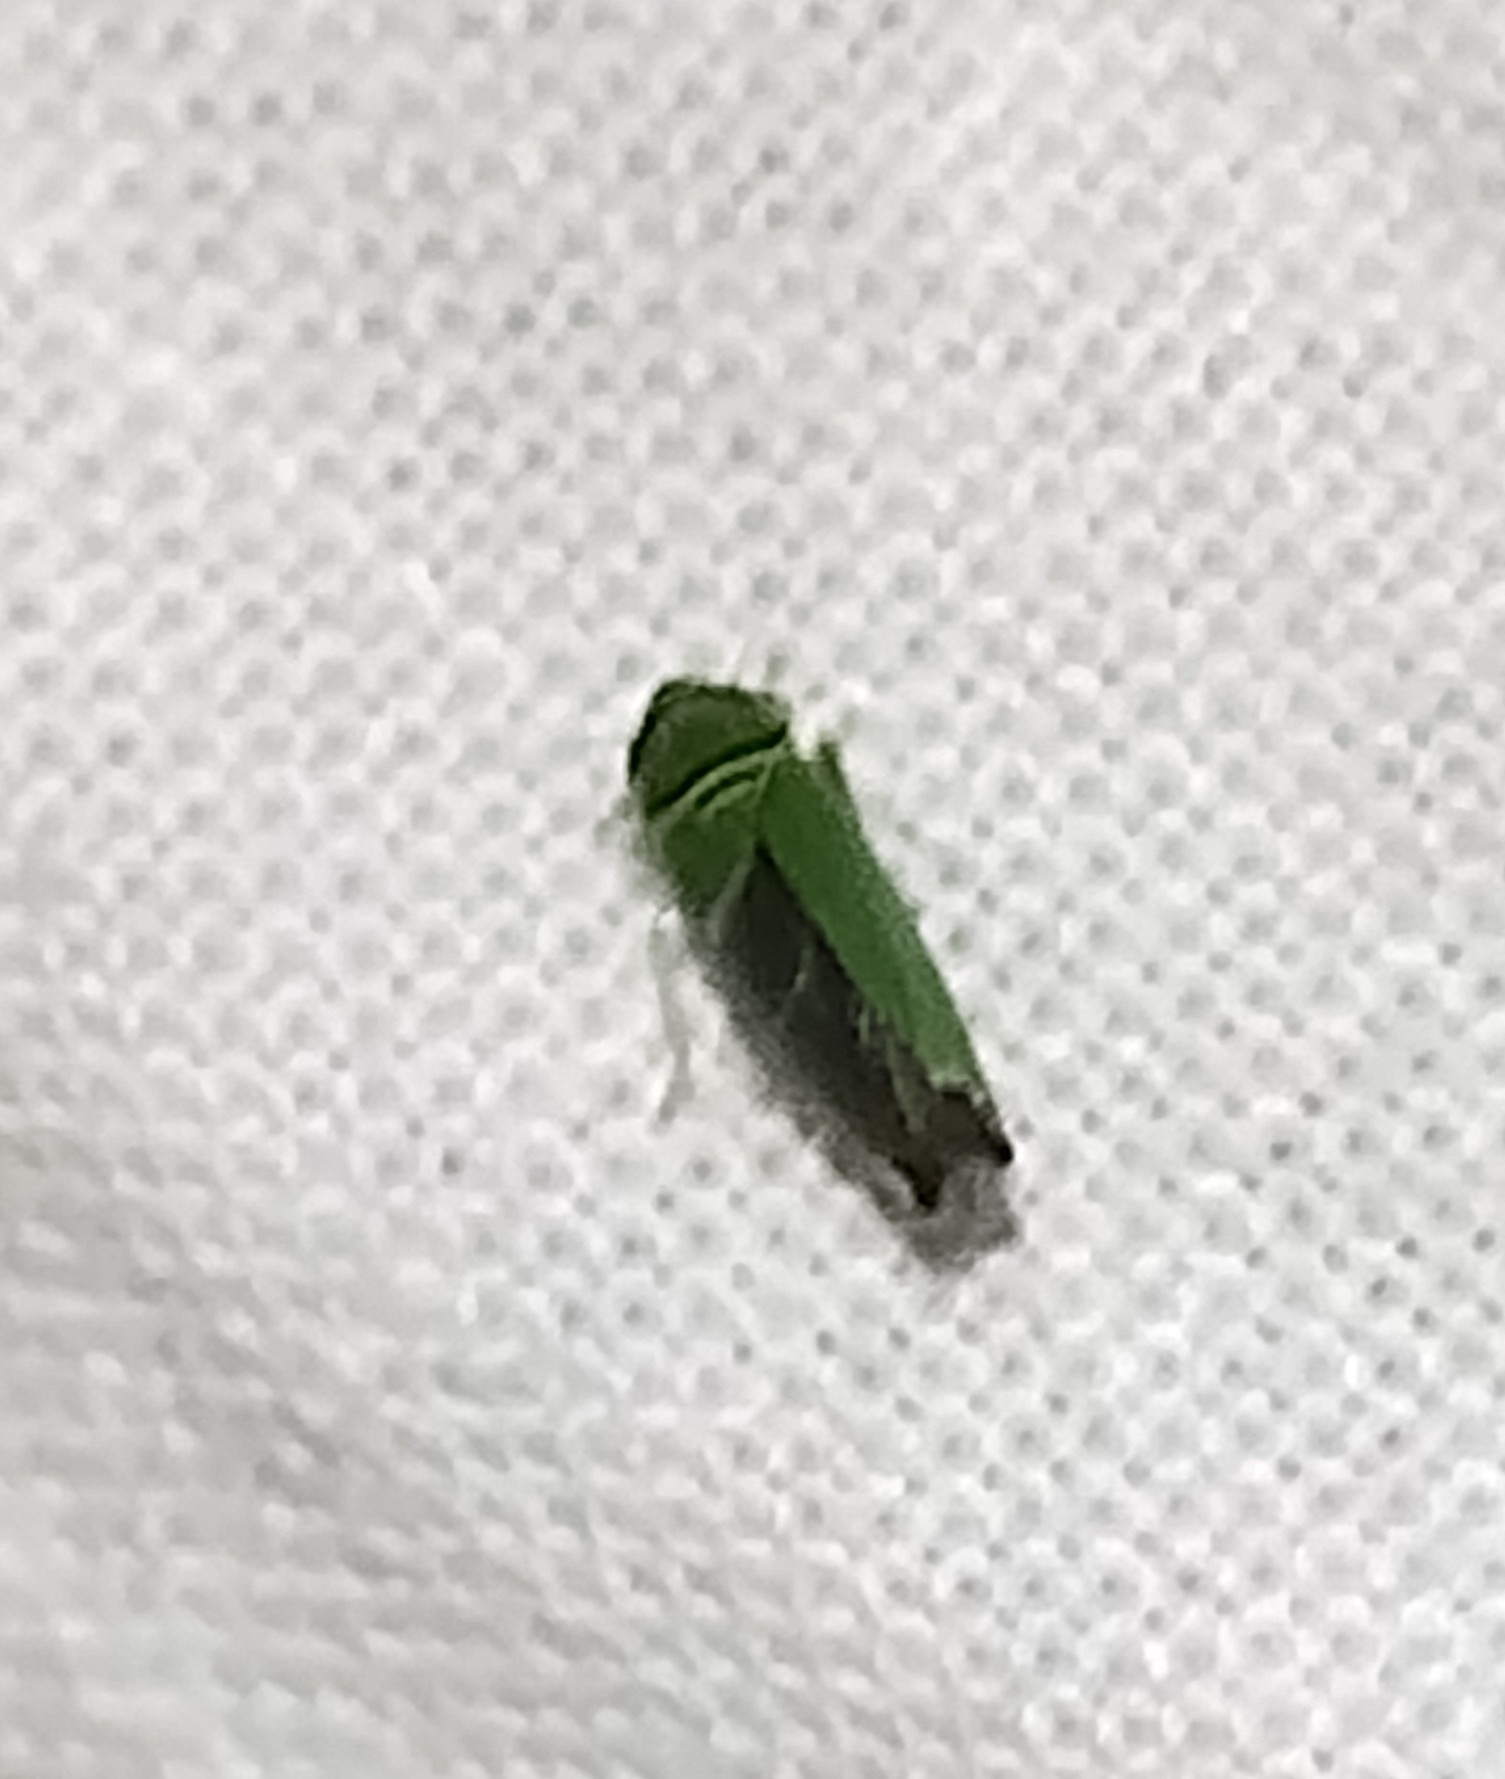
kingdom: Animalia
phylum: Arthropoda
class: Insecta
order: Hemiptera
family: Cicadellidae
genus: Tylozygus
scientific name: Tylozygus geometricus
